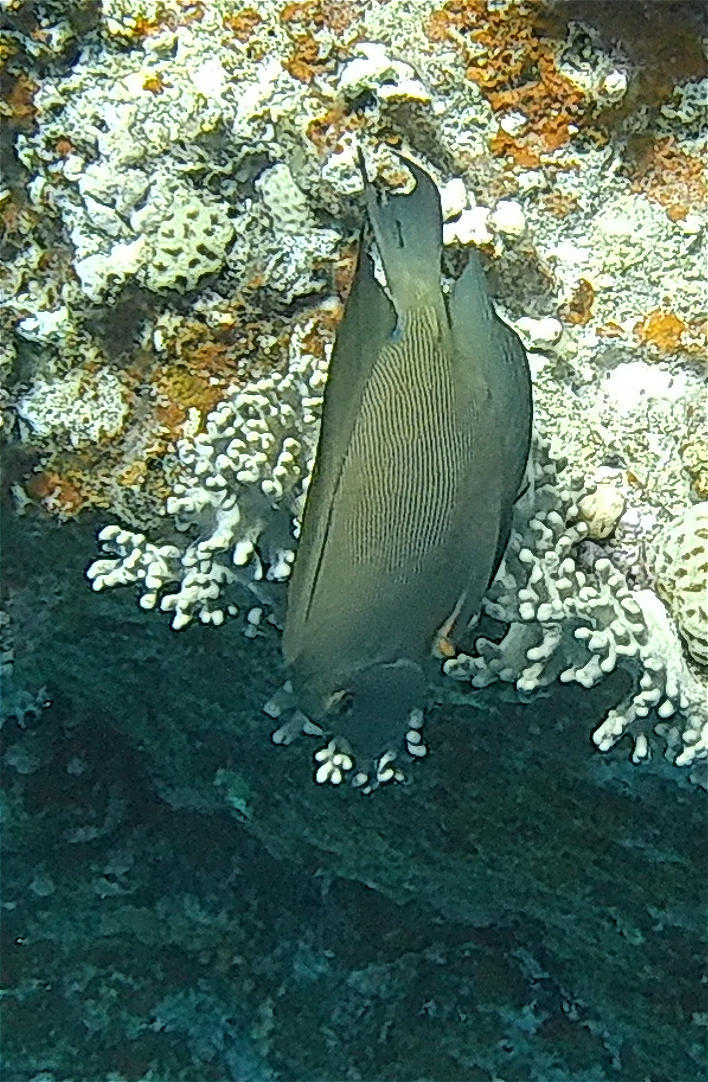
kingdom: Animalia
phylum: Chordata
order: Perciformes
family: Acanthuridae
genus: Ctenochaetus
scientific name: Ctenochaetus striatus
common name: Bristle-toothed surgeonfish
